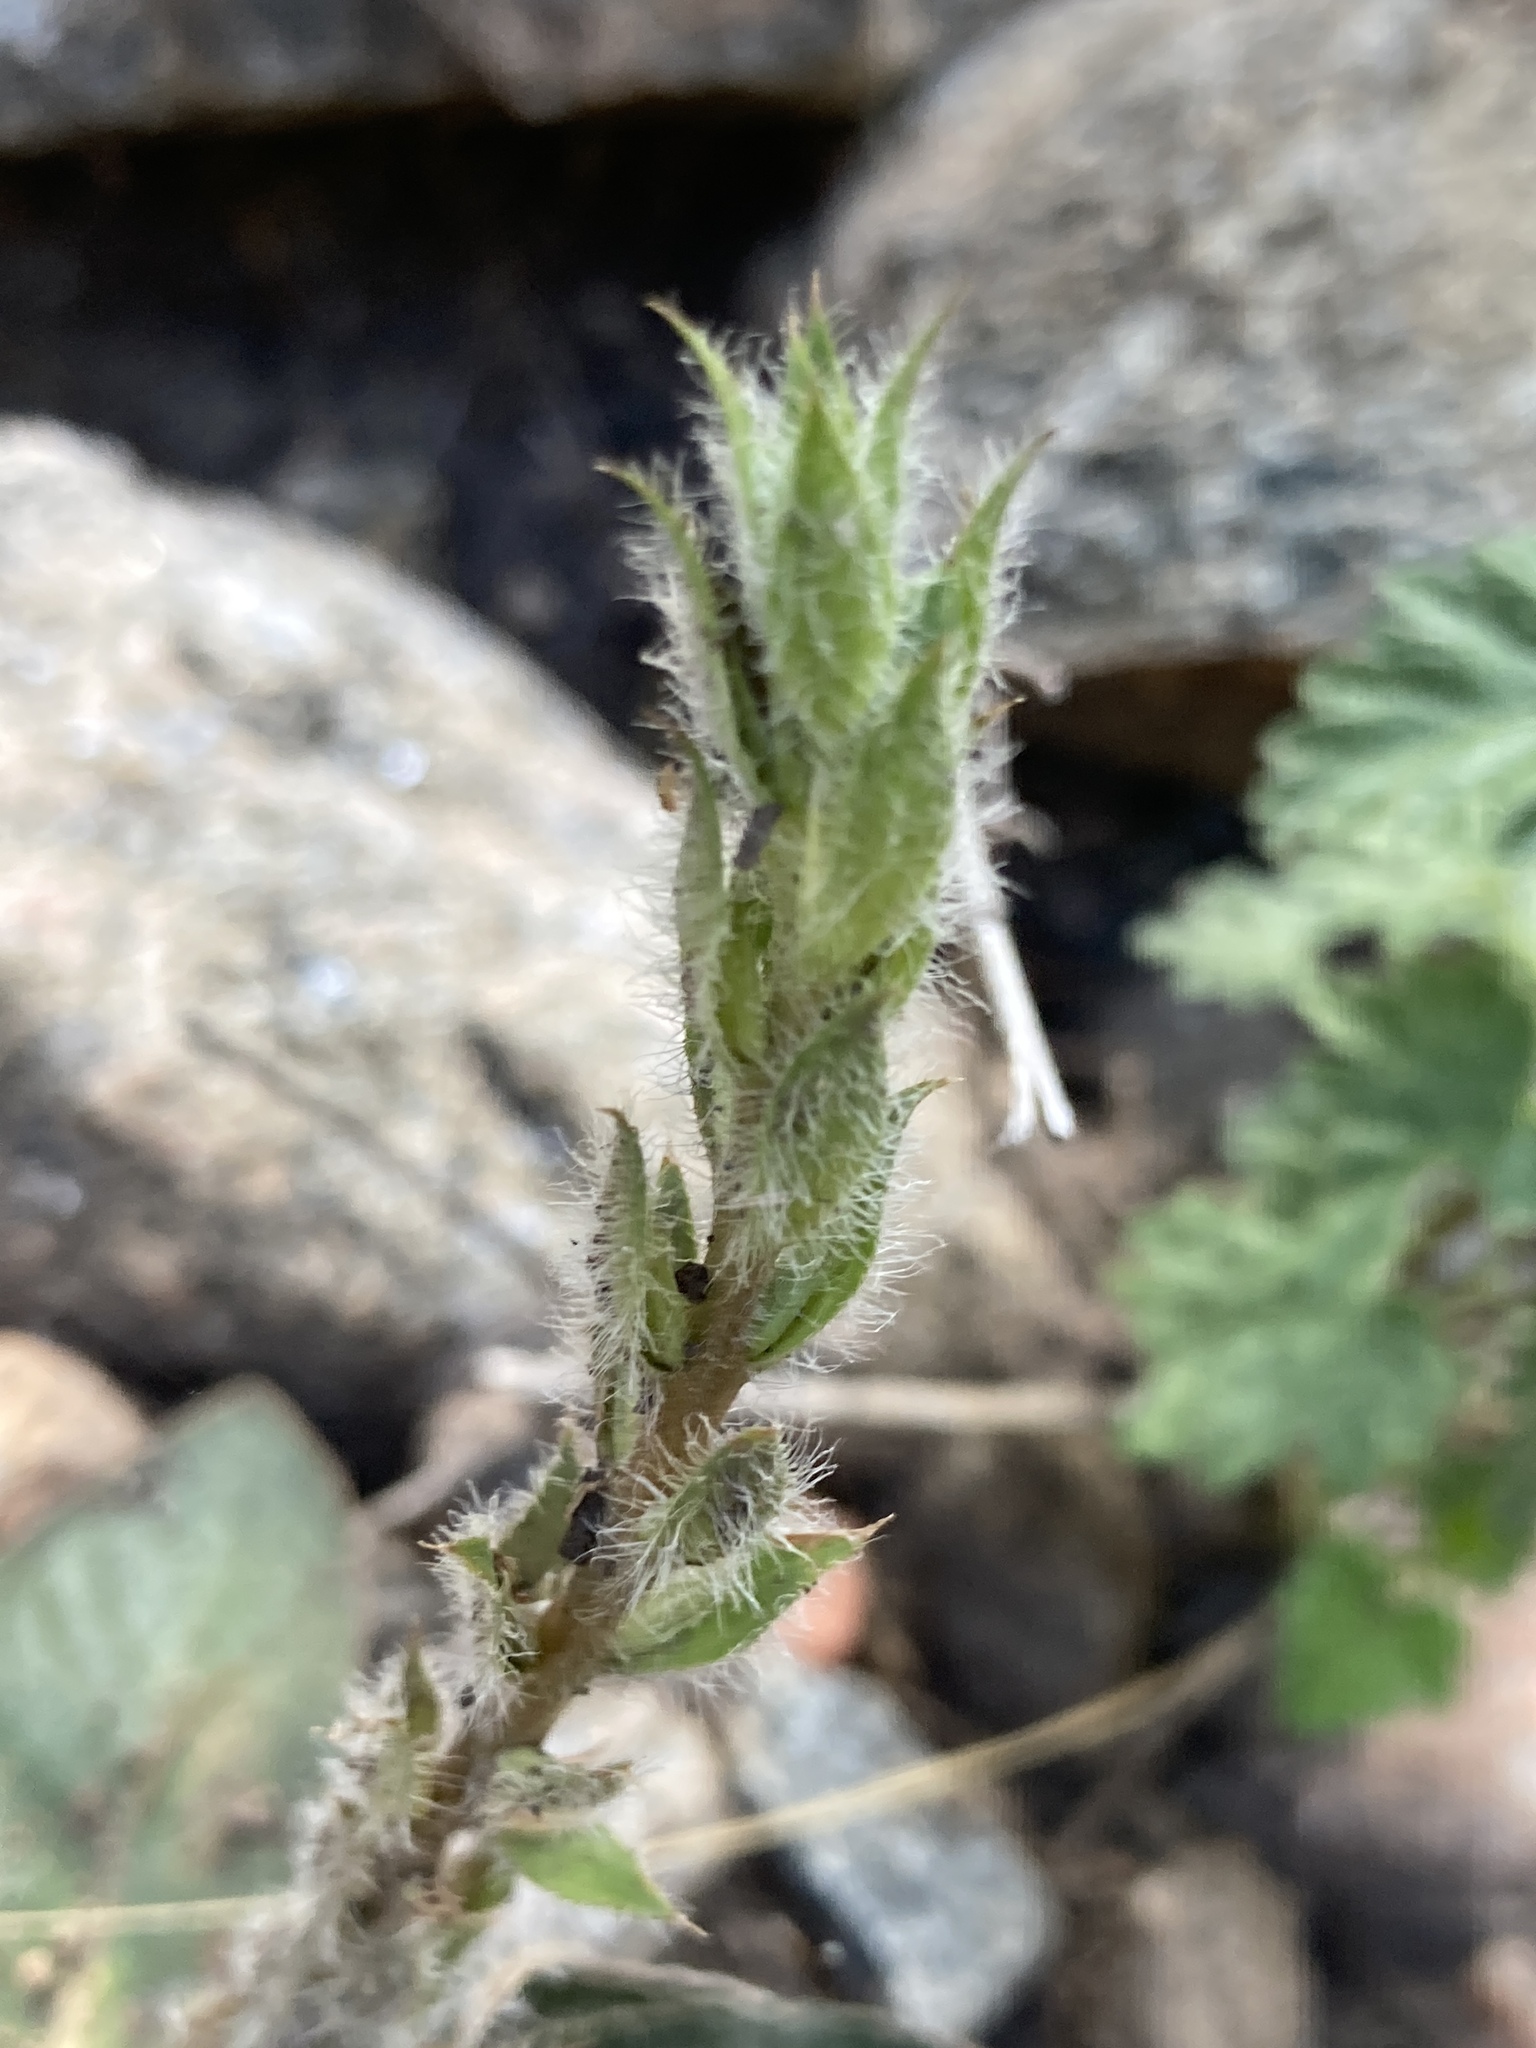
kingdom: Plantae
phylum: Tracheophyta
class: Magnoliopsida
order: Lamiales
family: Acanthaceae
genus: Stenandrium
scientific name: Stenandrium diphyllum
